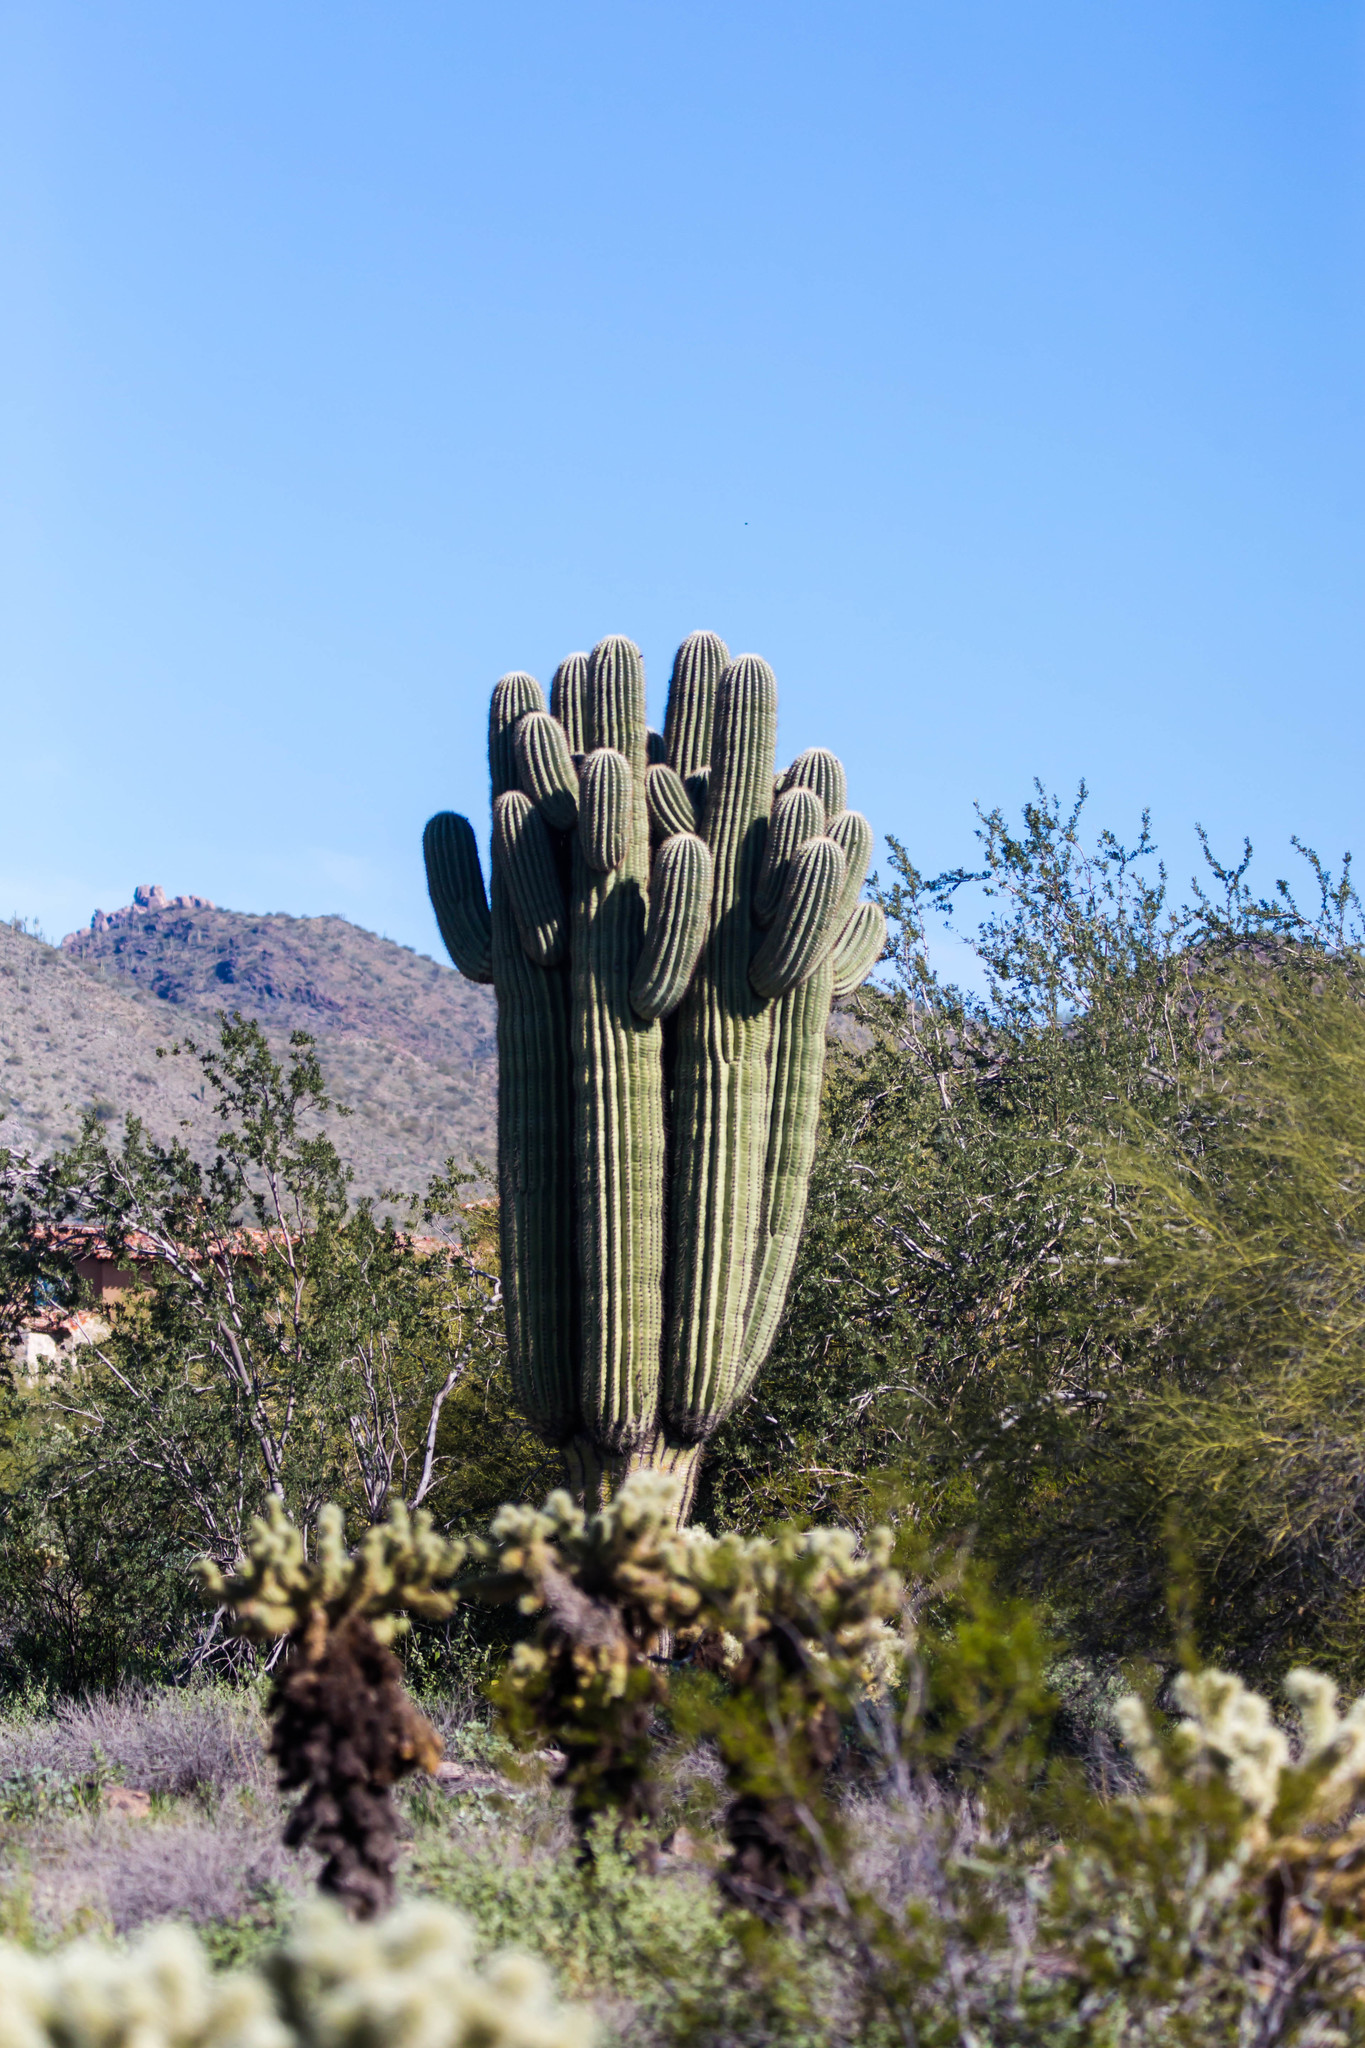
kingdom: Plantae
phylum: Tracheophyta
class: Magnoliopsida
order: Caryophyllales
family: Cactaceae
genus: Carnegiea
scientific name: Carnegiea gigantea
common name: Saguaro
